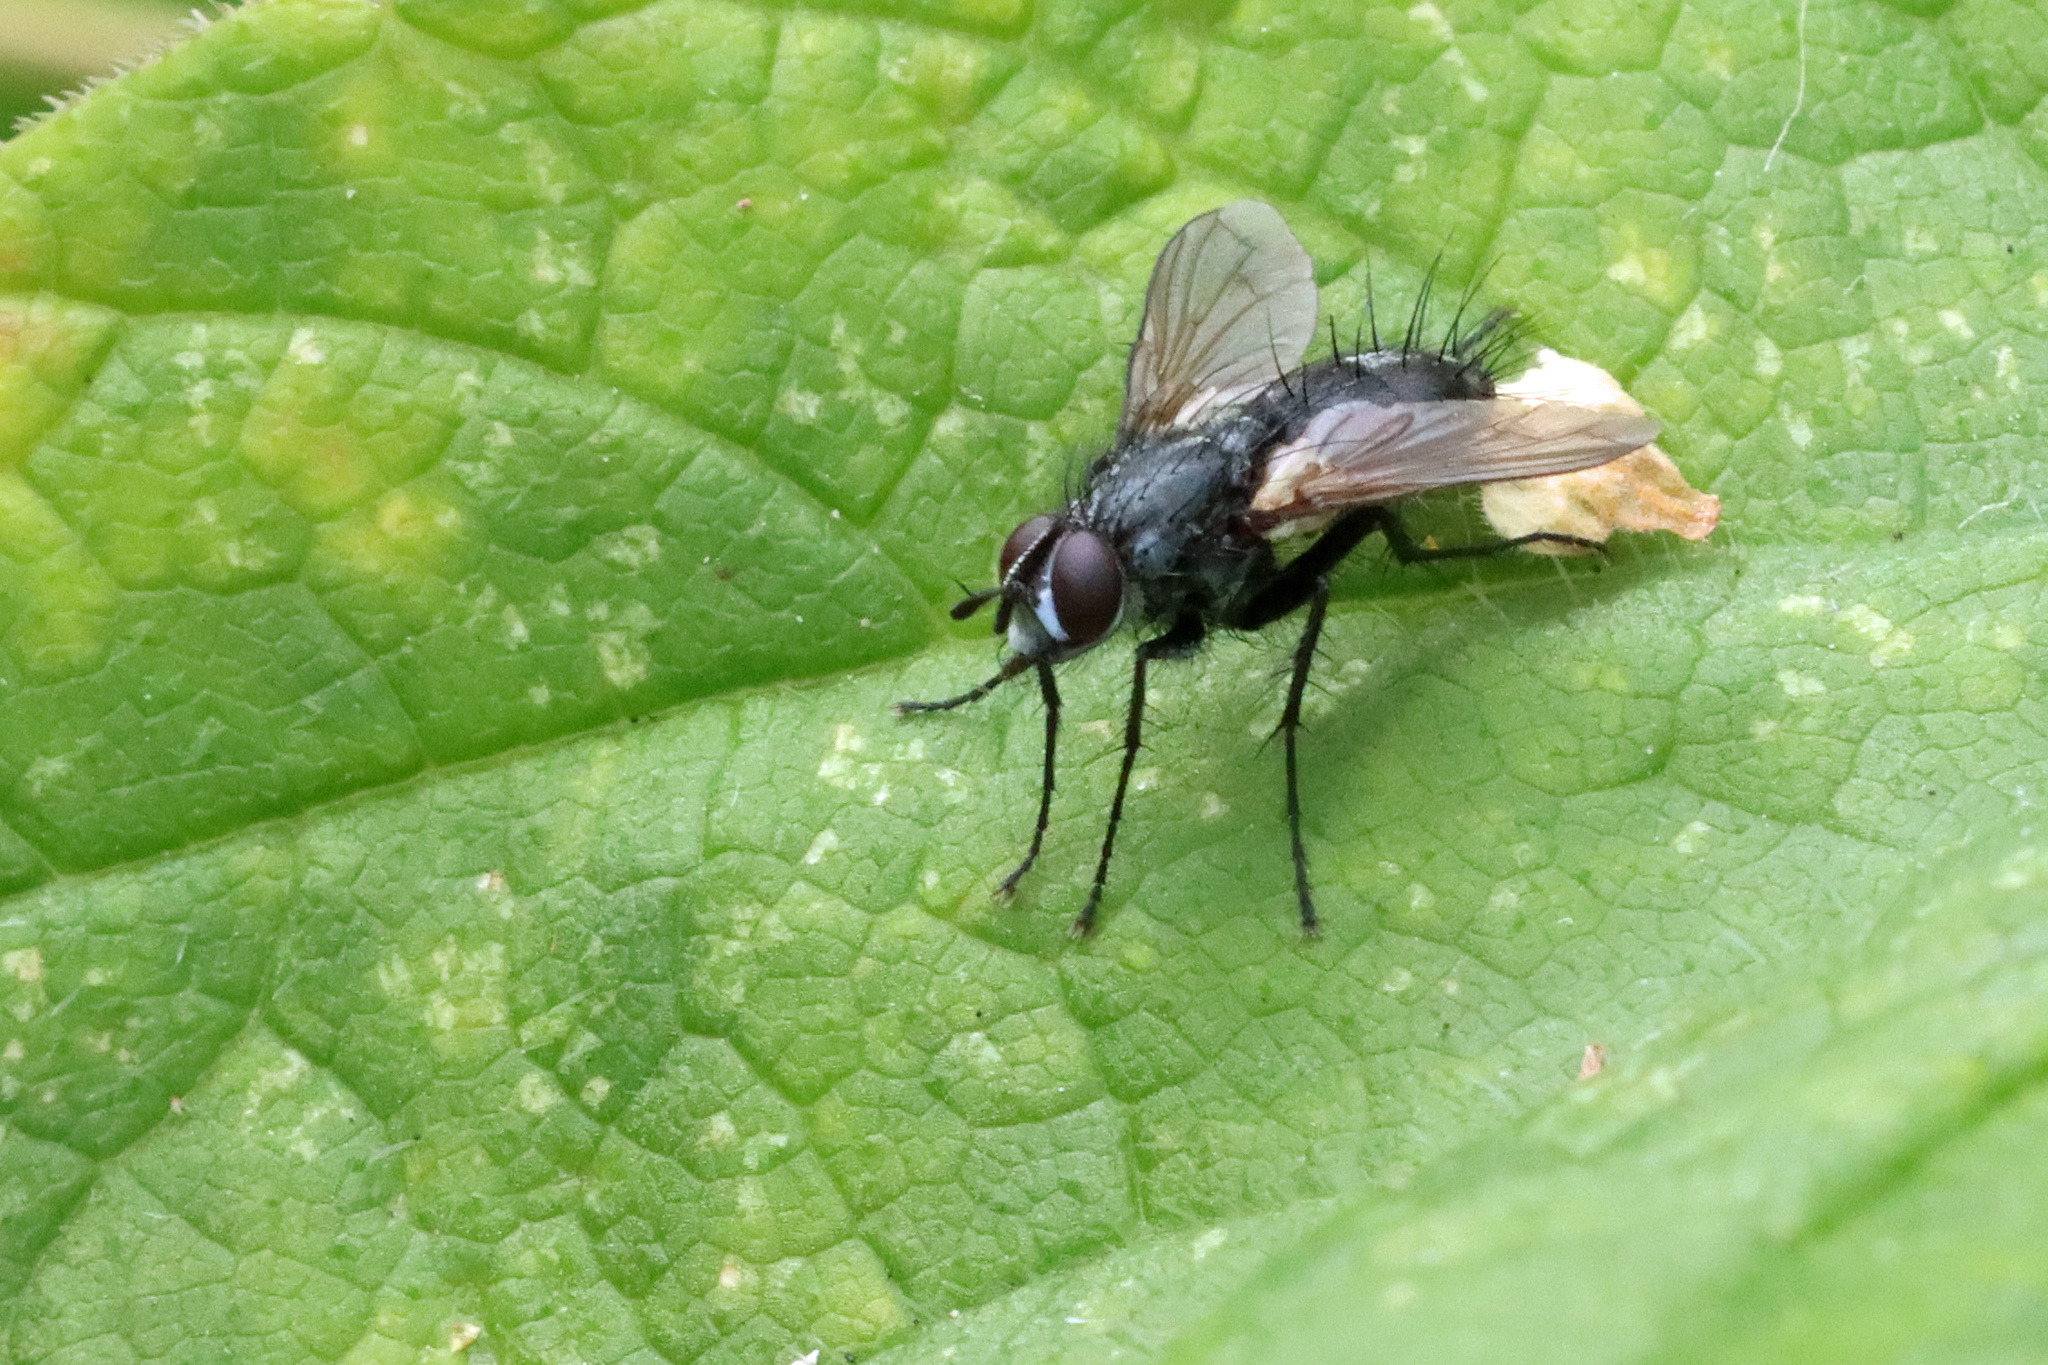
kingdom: Animalia
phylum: Arthropoda
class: Insecta
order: Diptera
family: Tachinidae
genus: Eriothrix
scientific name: Eriothrix rufomaculatus
